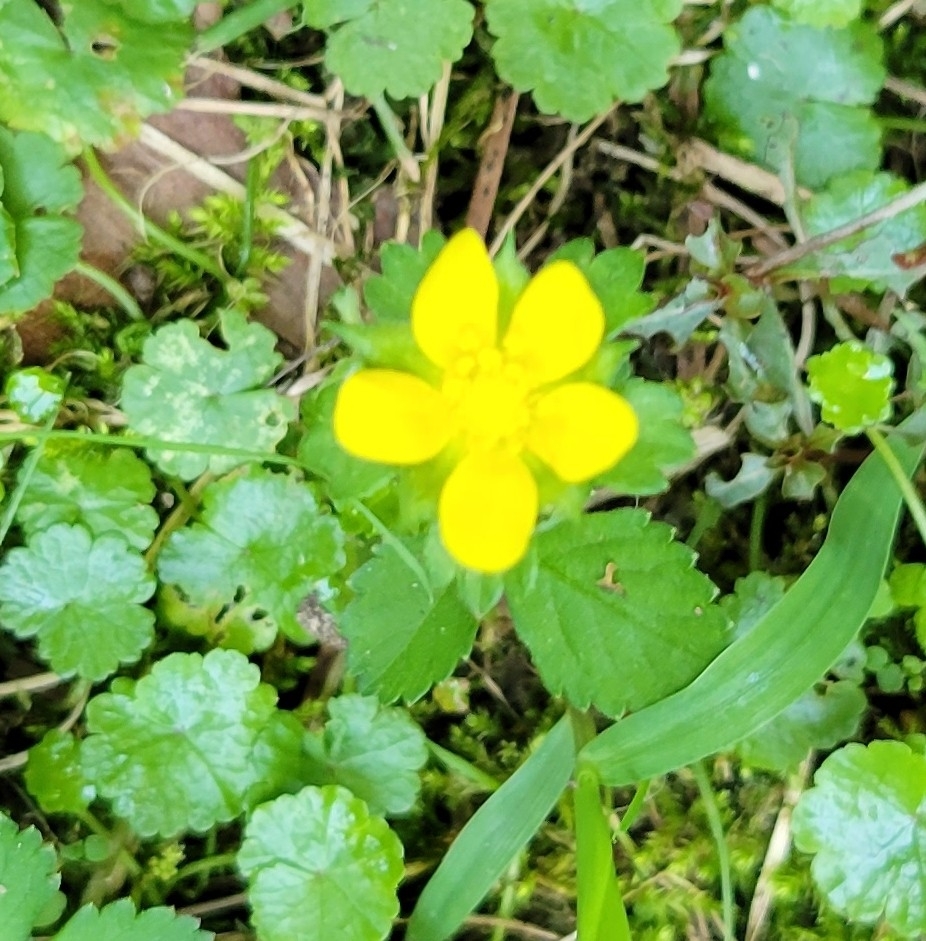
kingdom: Plantae
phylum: Tracheophyta
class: Magnoliopsida
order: Rosales
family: Rosaceae
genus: Potentilla
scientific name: Potentilla indica
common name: Yellow-flowered strawberry
